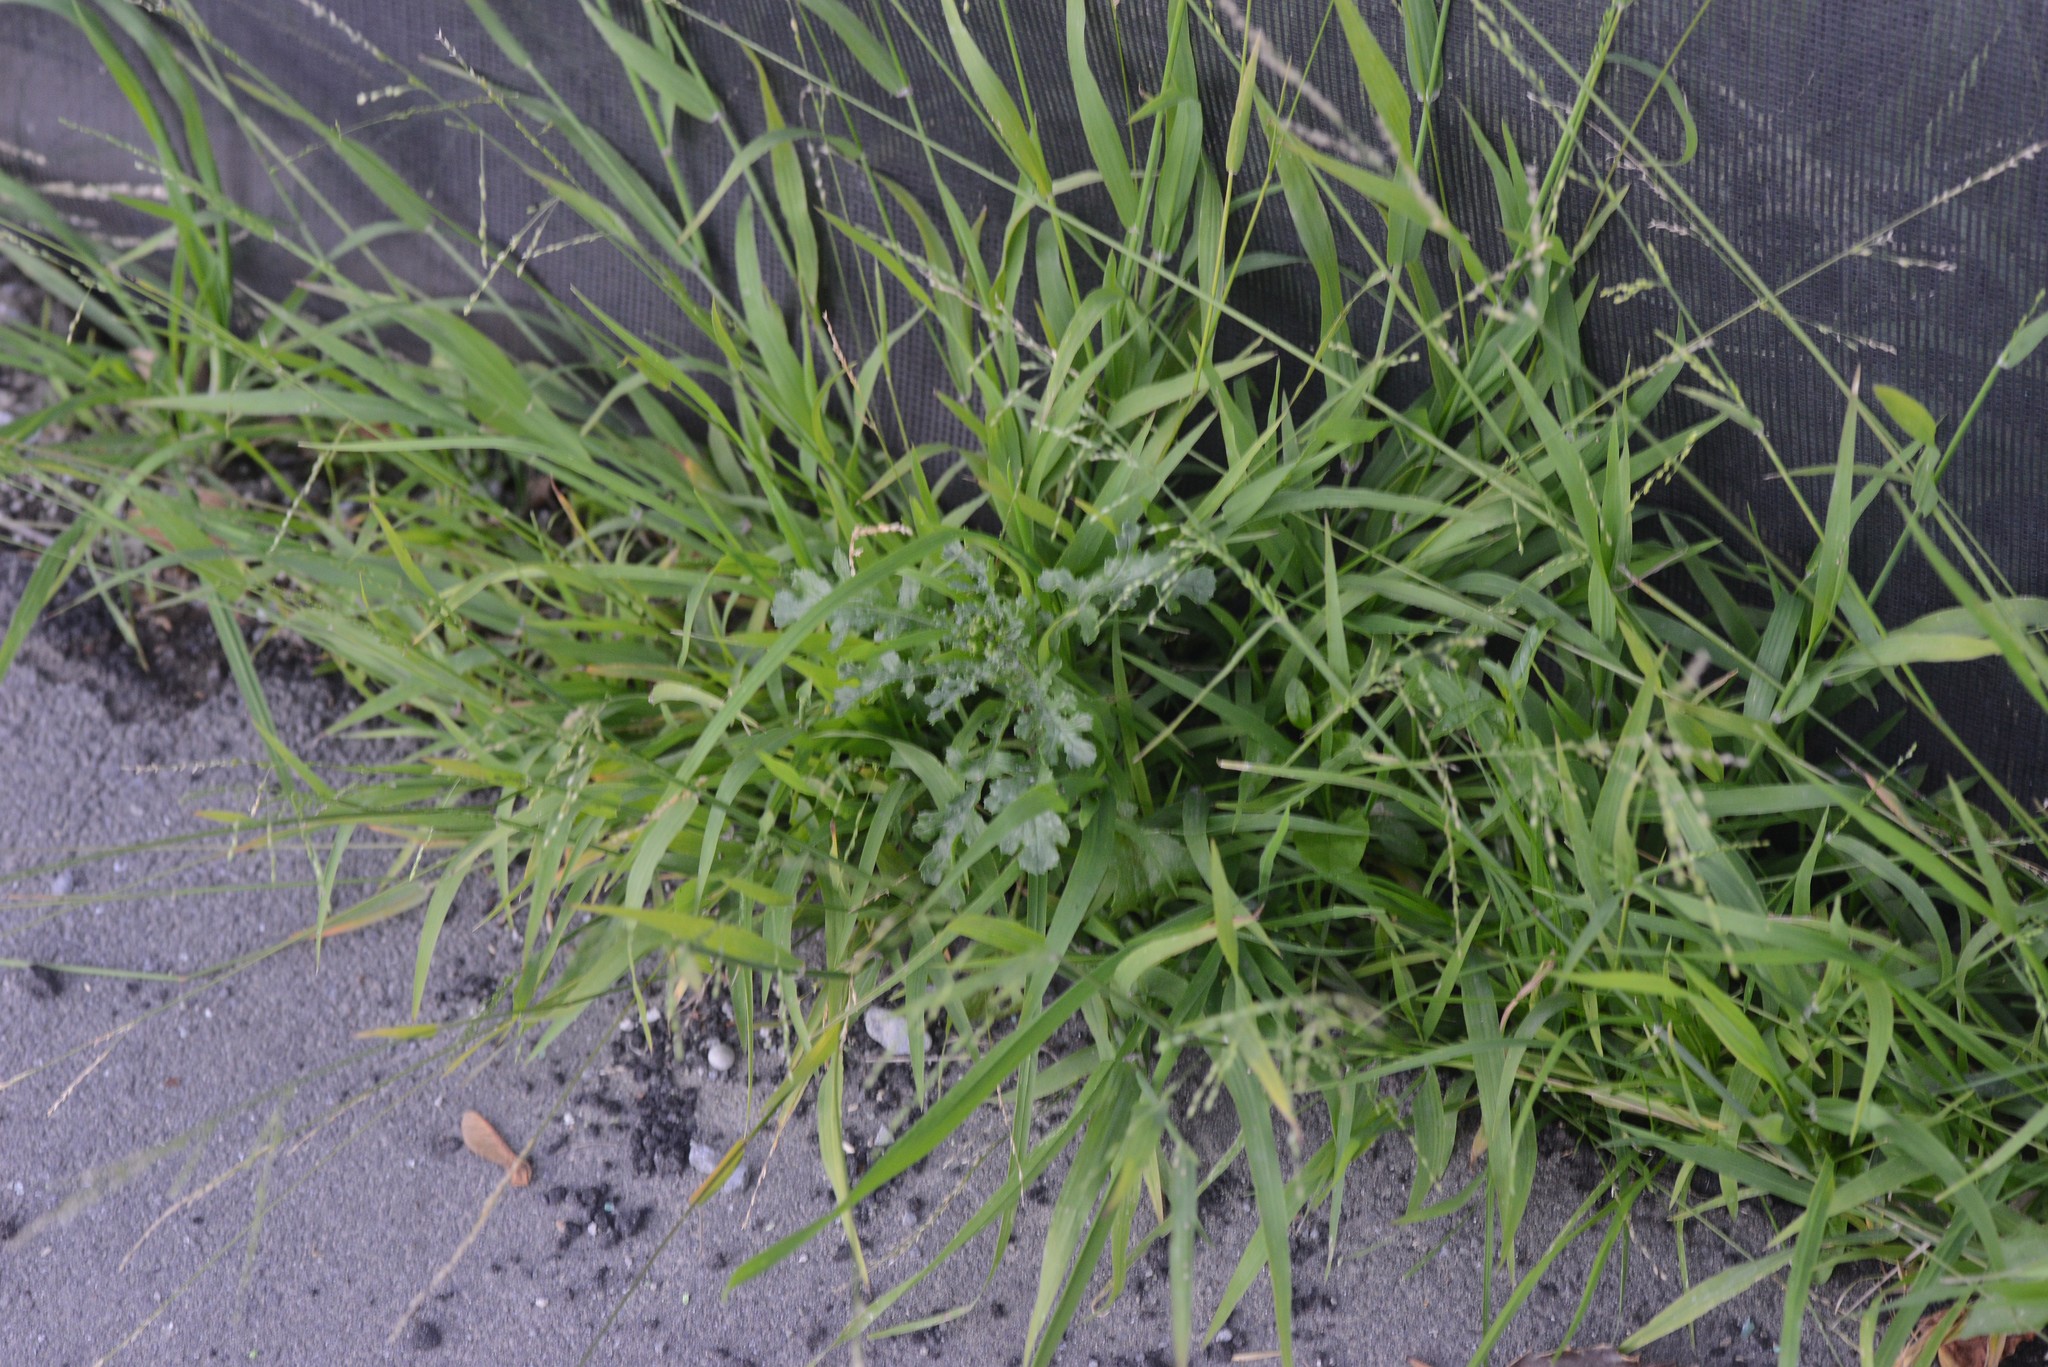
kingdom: Plantae
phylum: Tracheophyta
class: Magnoliopsida
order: Asterales
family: Asteraceae
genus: Senecio
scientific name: Senecio vulgaris
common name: Old-man-in-the-spring
